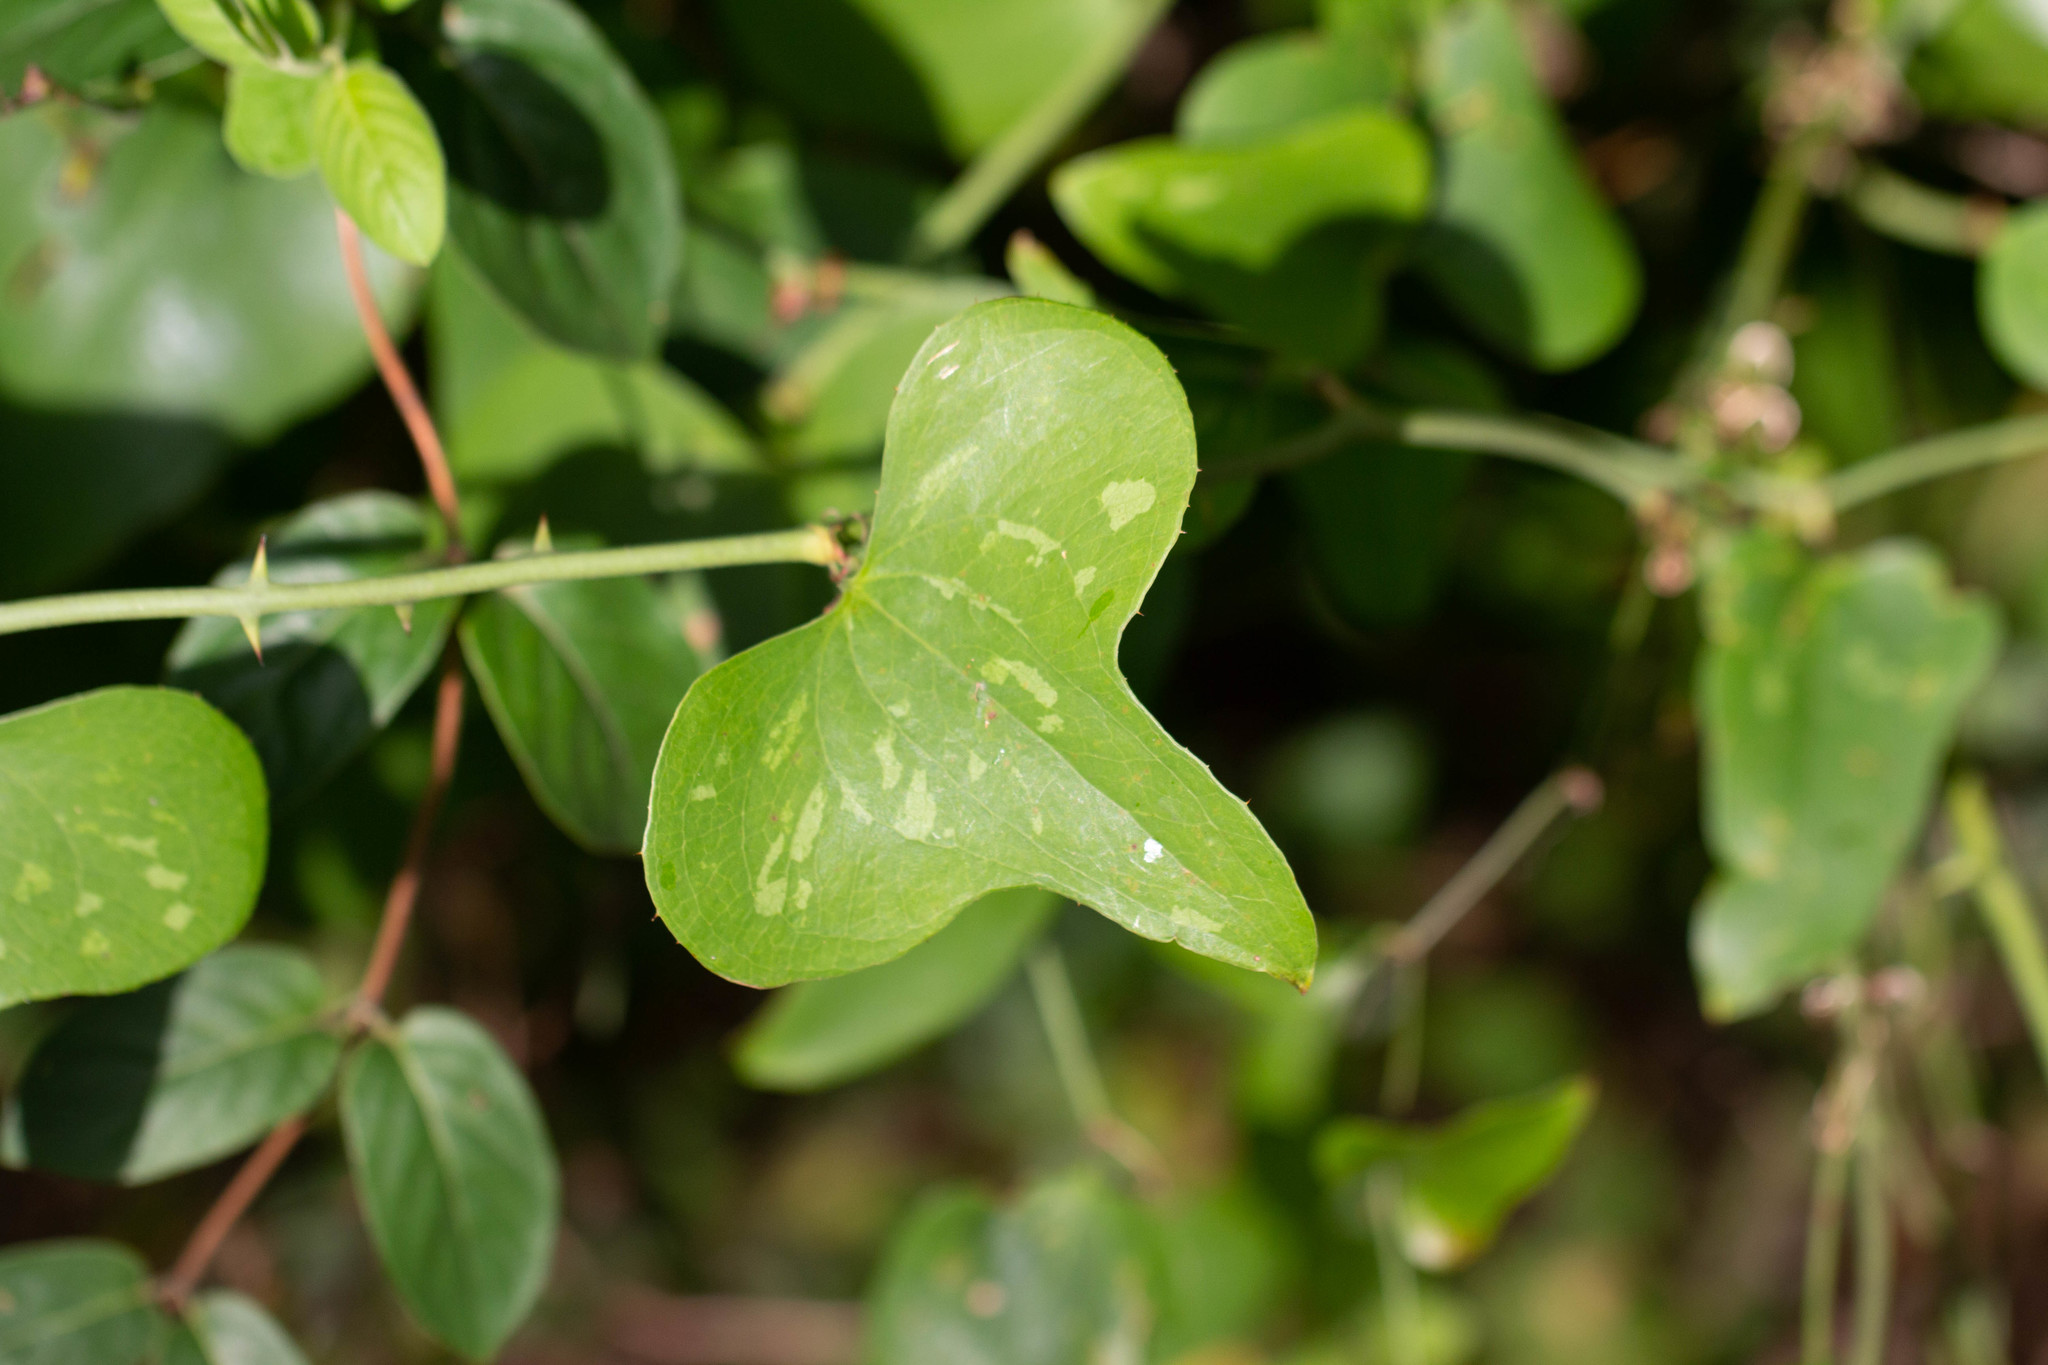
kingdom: Plantae
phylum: Tracheophyta
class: Liliopsida
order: Liliales
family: Smilacaceae
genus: Smilax
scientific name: Smilax bona-nox
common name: Catbrier
